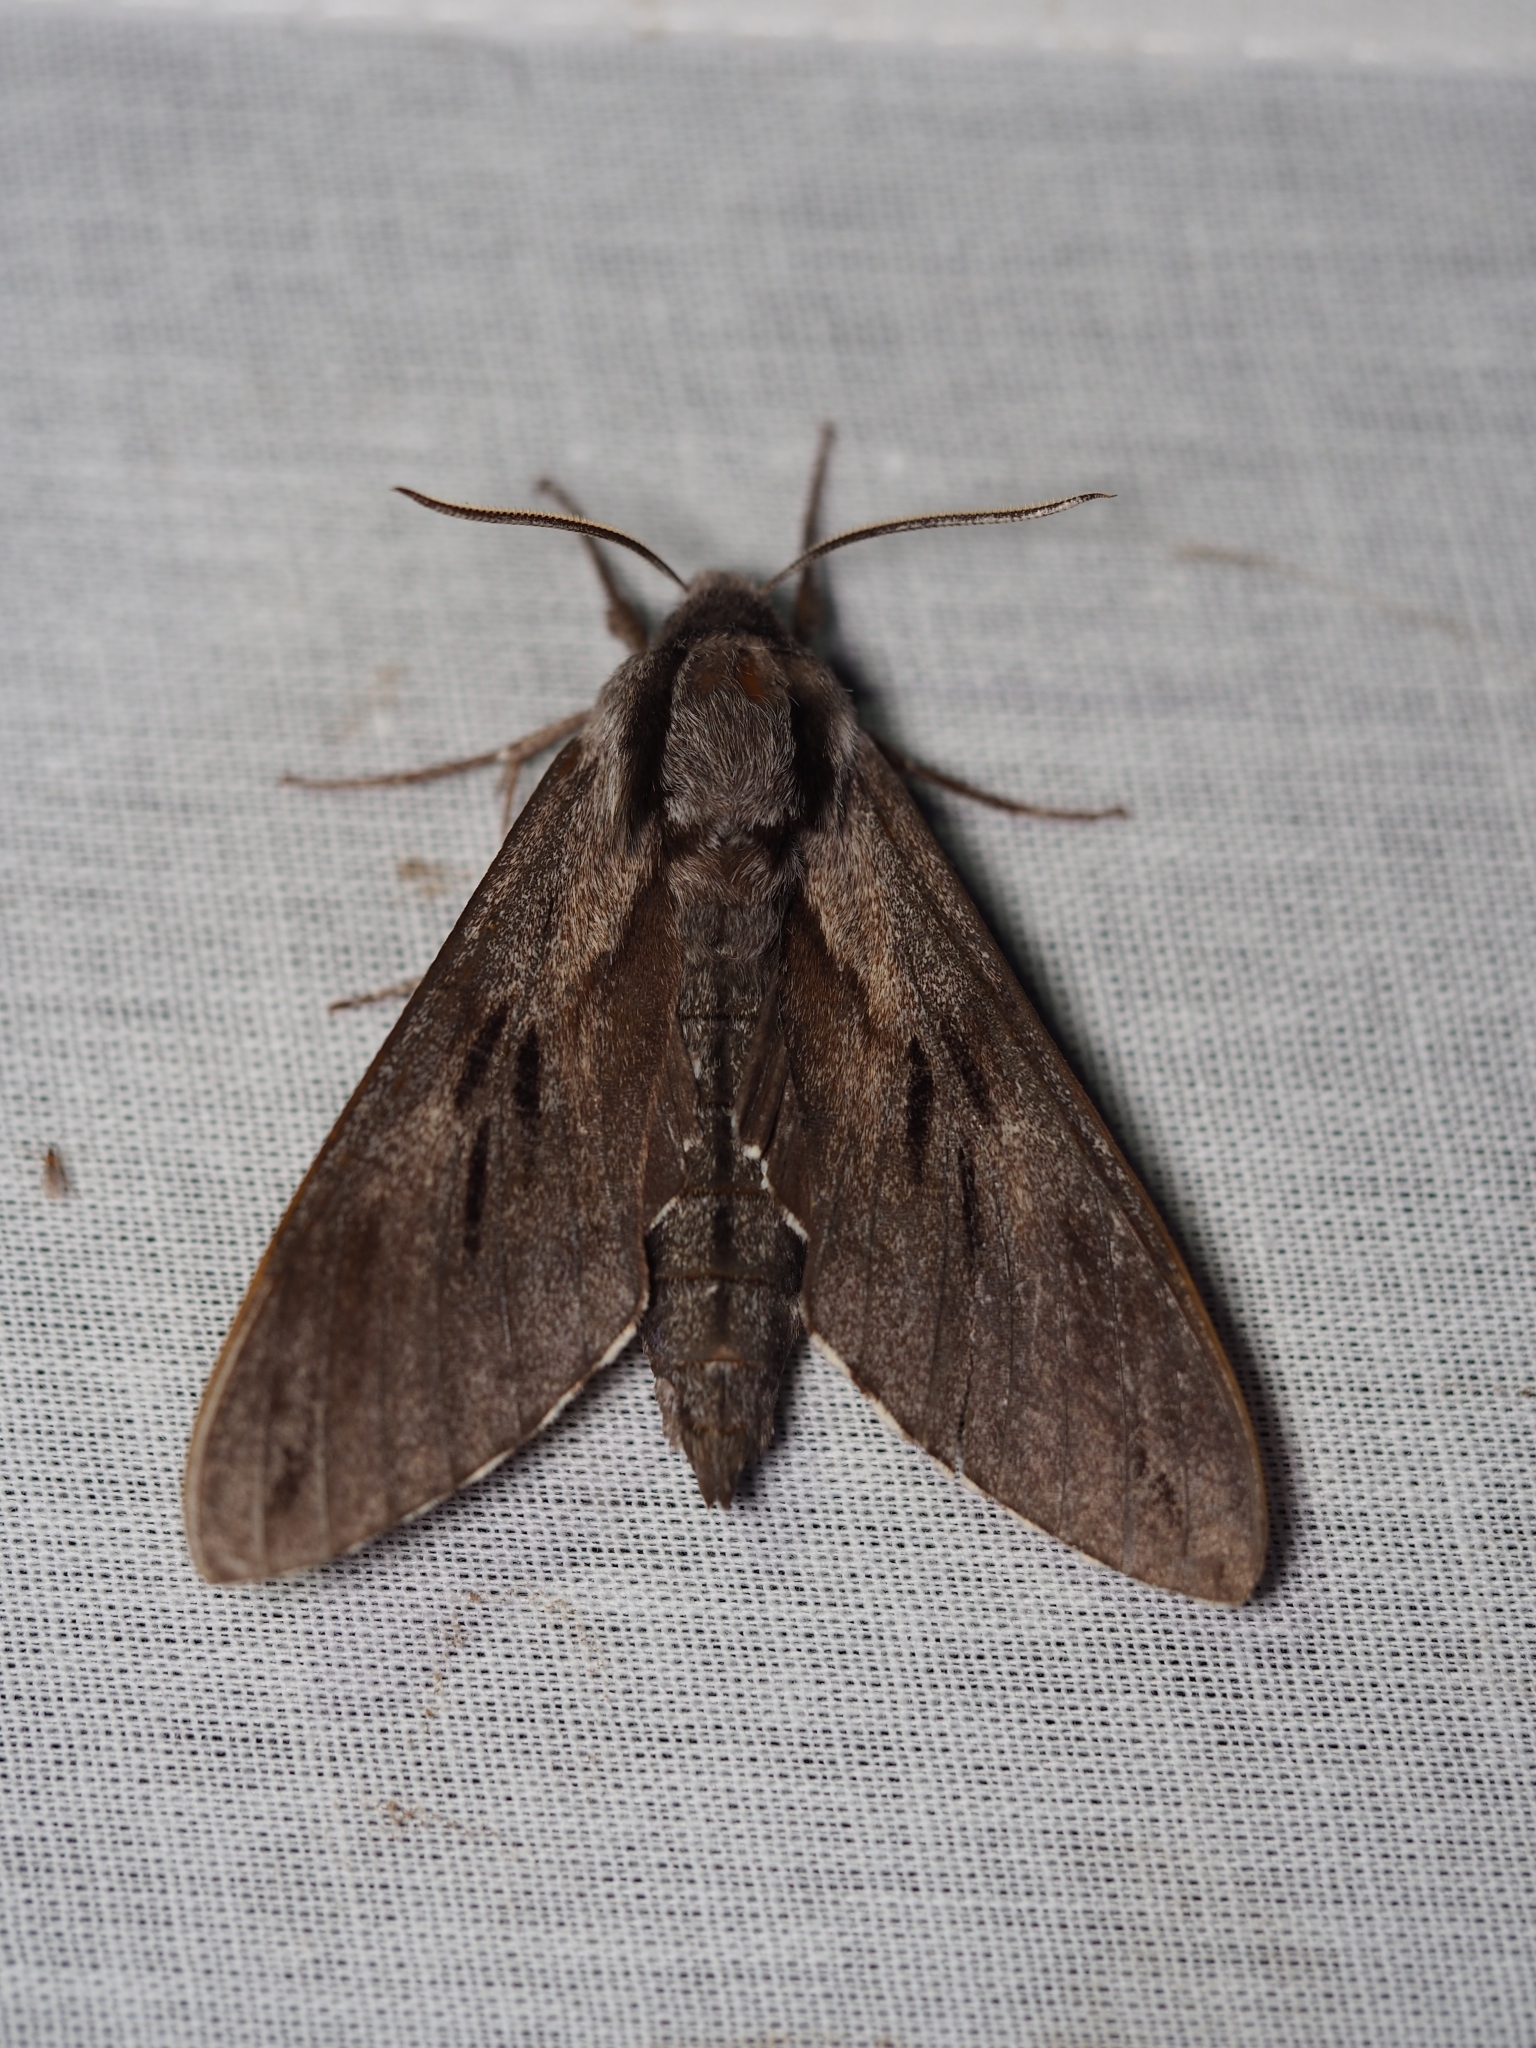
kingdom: Animalia
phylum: Arthropoda
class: Insecta
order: Lepidoptera
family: Sphingidae
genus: Sphinx
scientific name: Sphinx pinastri
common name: Pine hawk-moth
